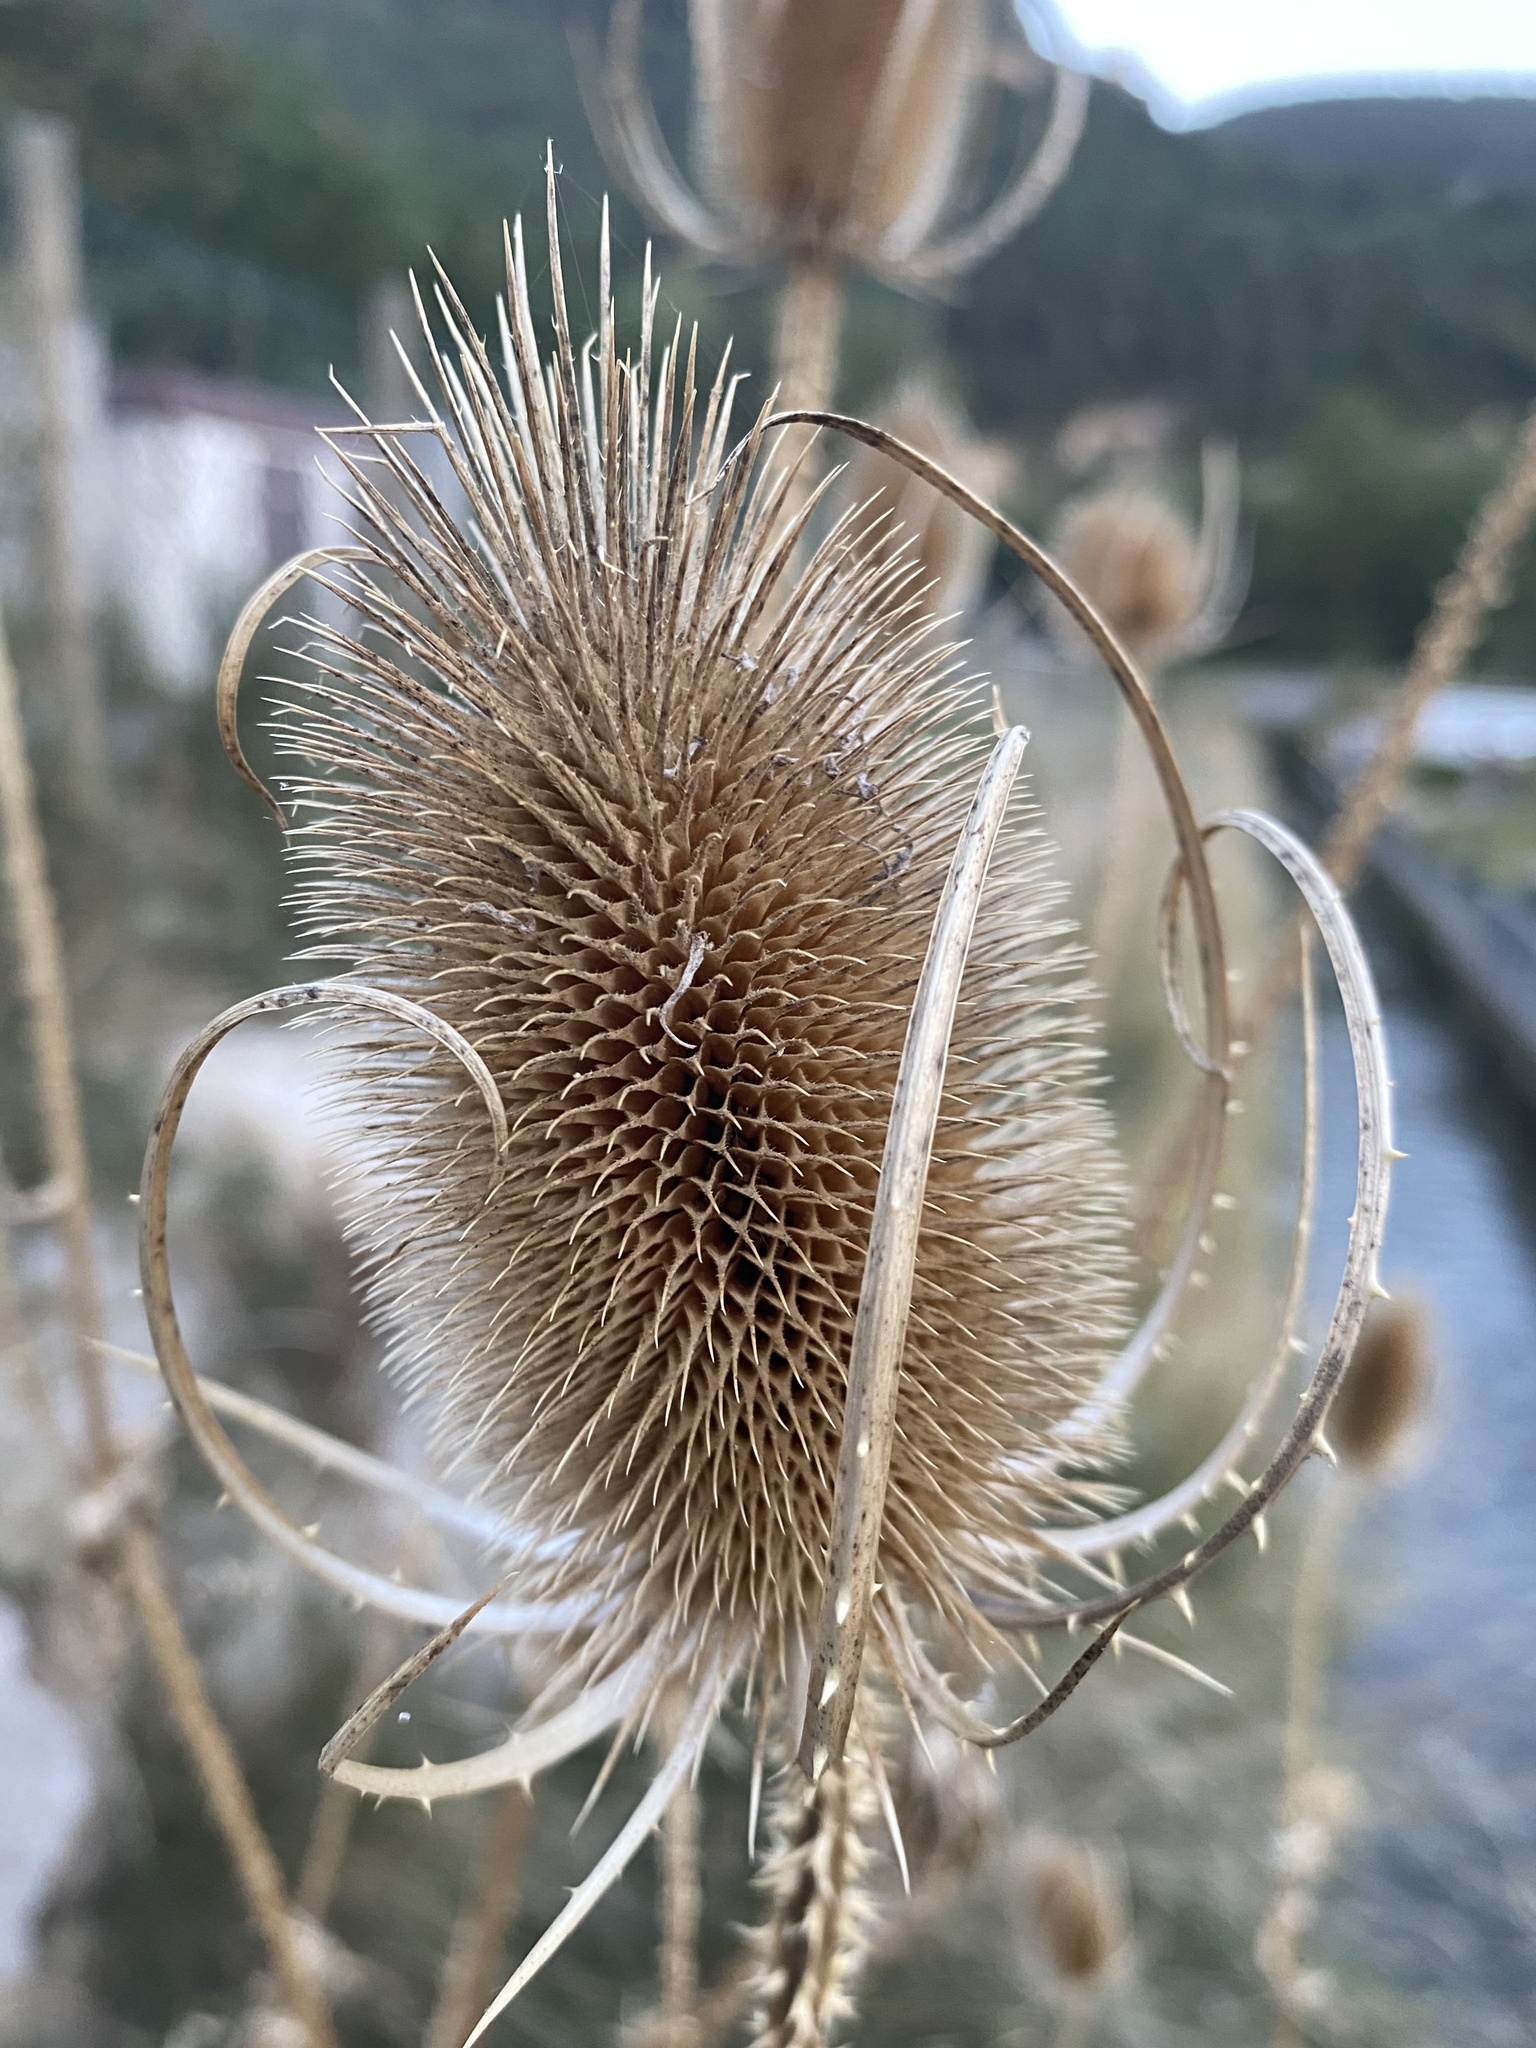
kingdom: Plantae
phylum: Tracheophyta
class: Magnoliopsida
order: Dipsacales
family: Caprifoliaceae
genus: Dipsacus
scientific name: Dipsacus fullonum
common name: Teasel
